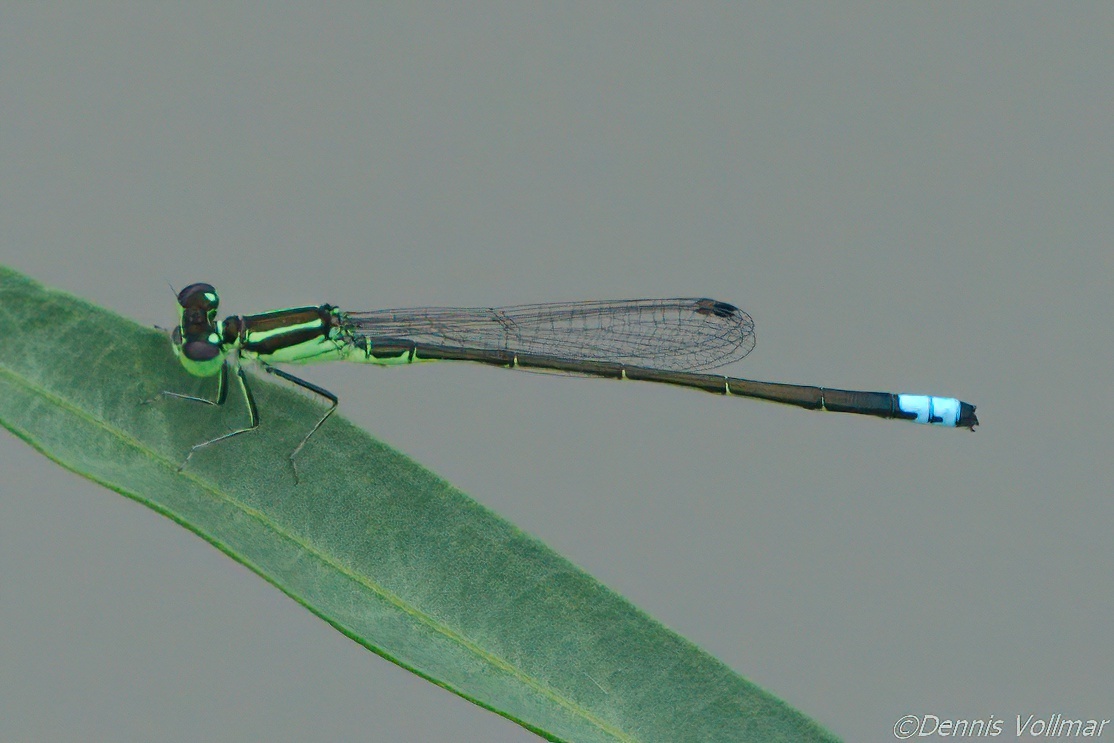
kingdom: Animalia
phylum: Arthropoda
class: Insecta
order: Odonata
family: Coenagrionidae
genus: Ischnura
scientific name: Ischnura verticalis
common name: Eastern forktail
